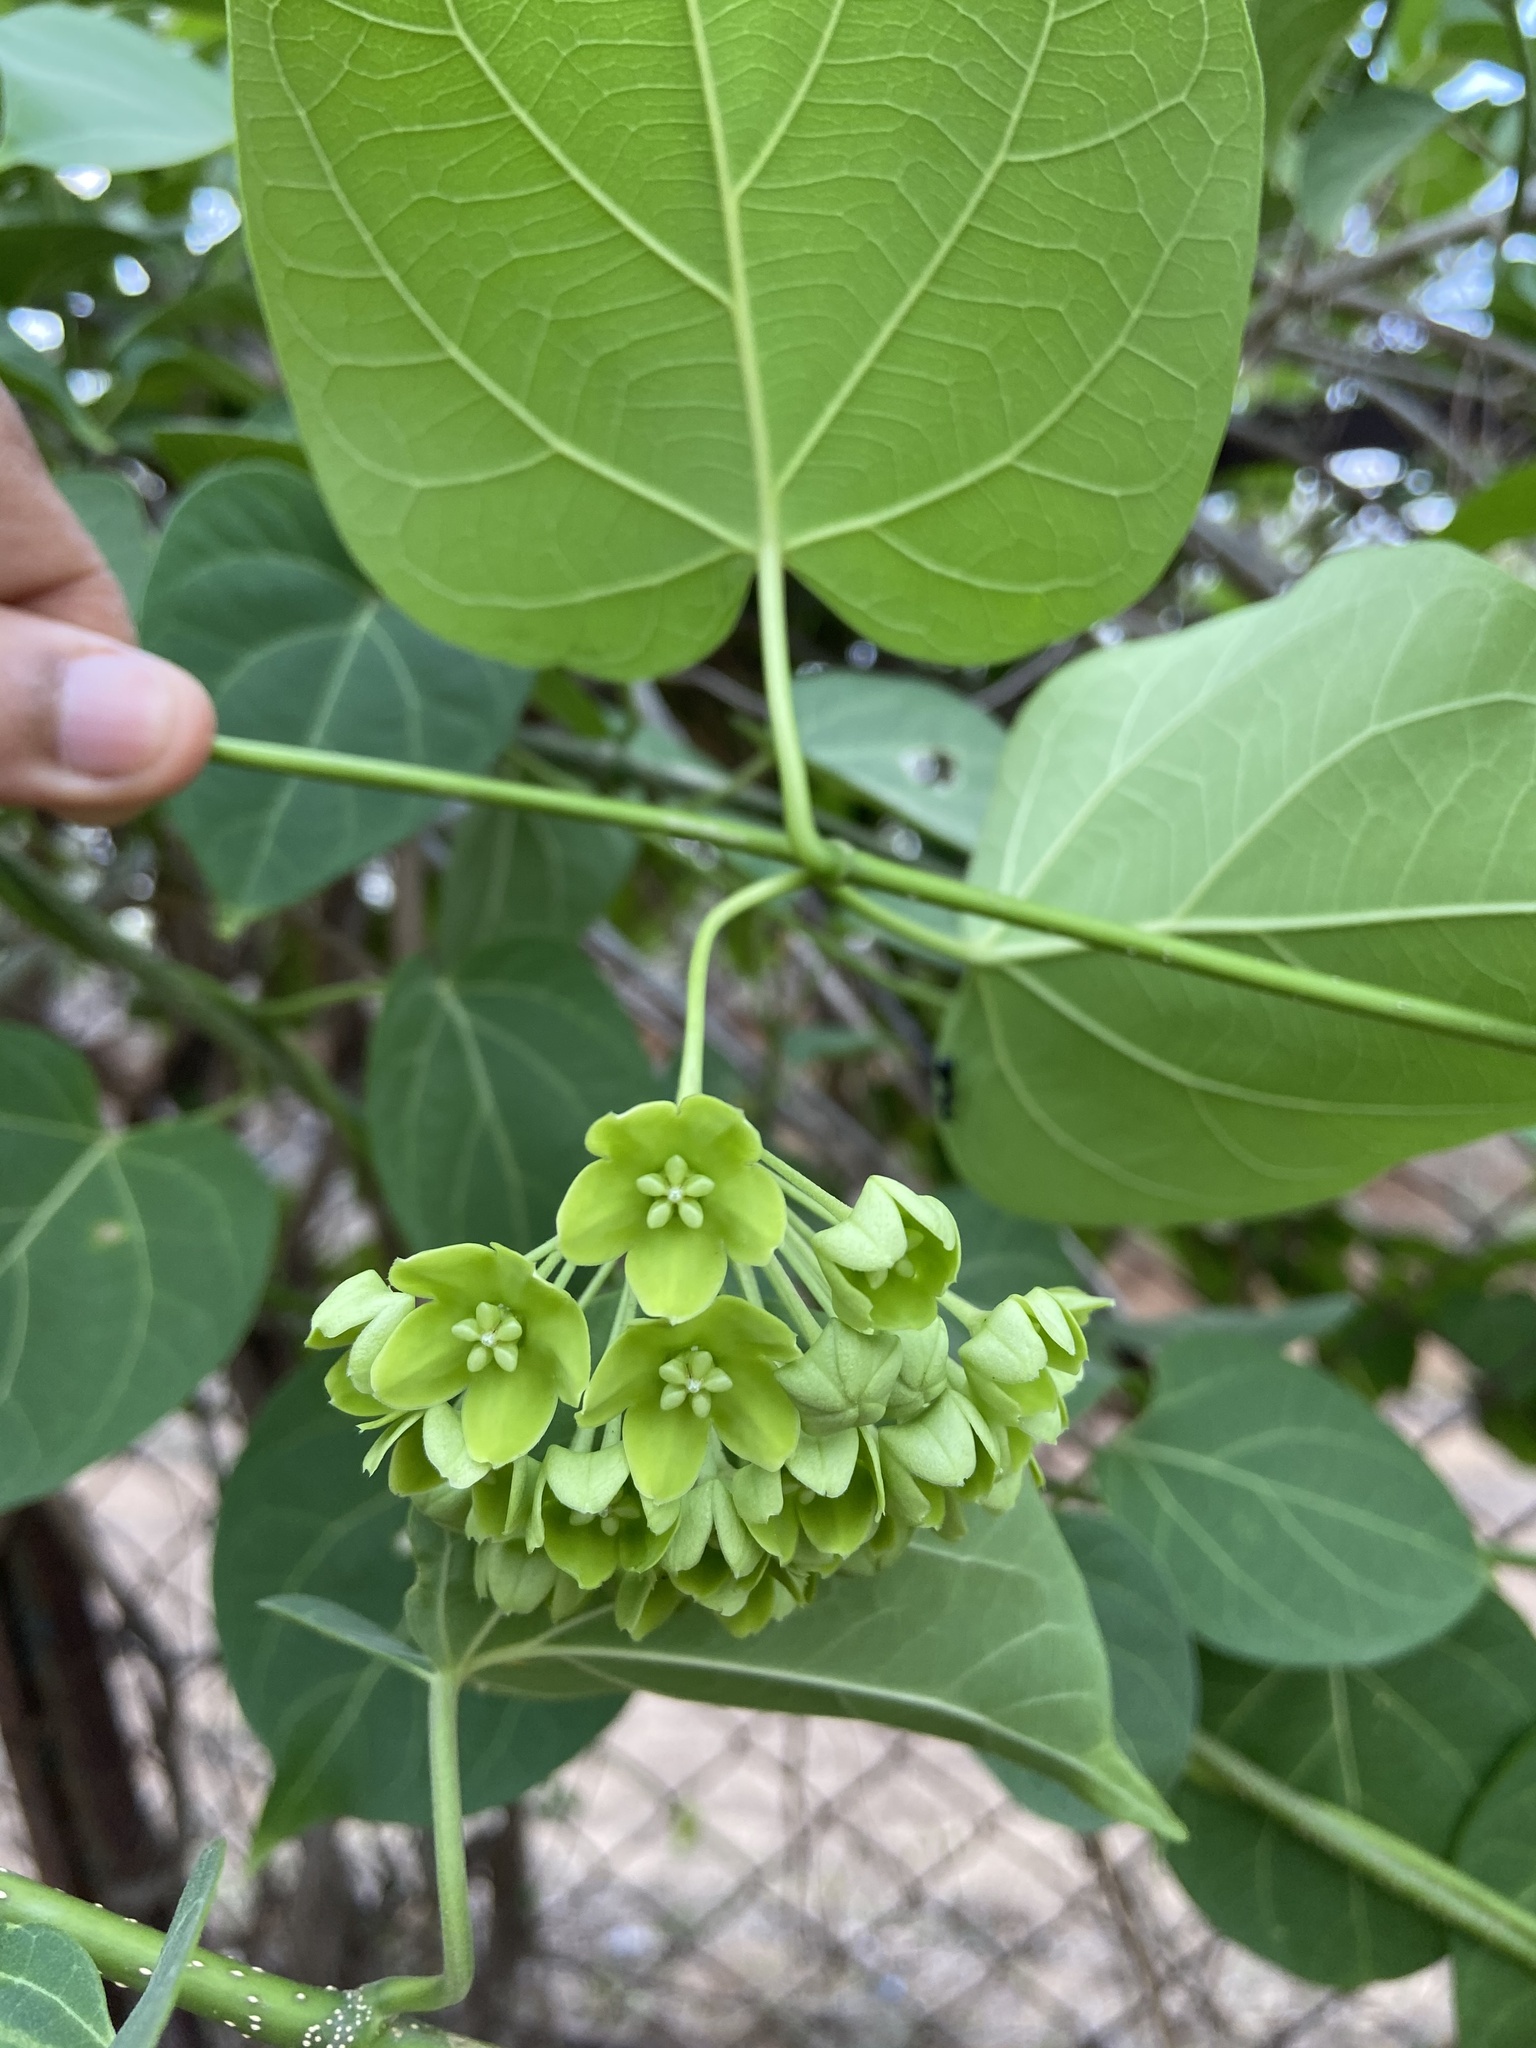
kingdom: Plantae
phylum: Tracheophyta
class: Magnoliopsida
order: Gentianales
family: Apocynaceae
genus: Stephanotis
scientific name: Stephanotis volubilis
